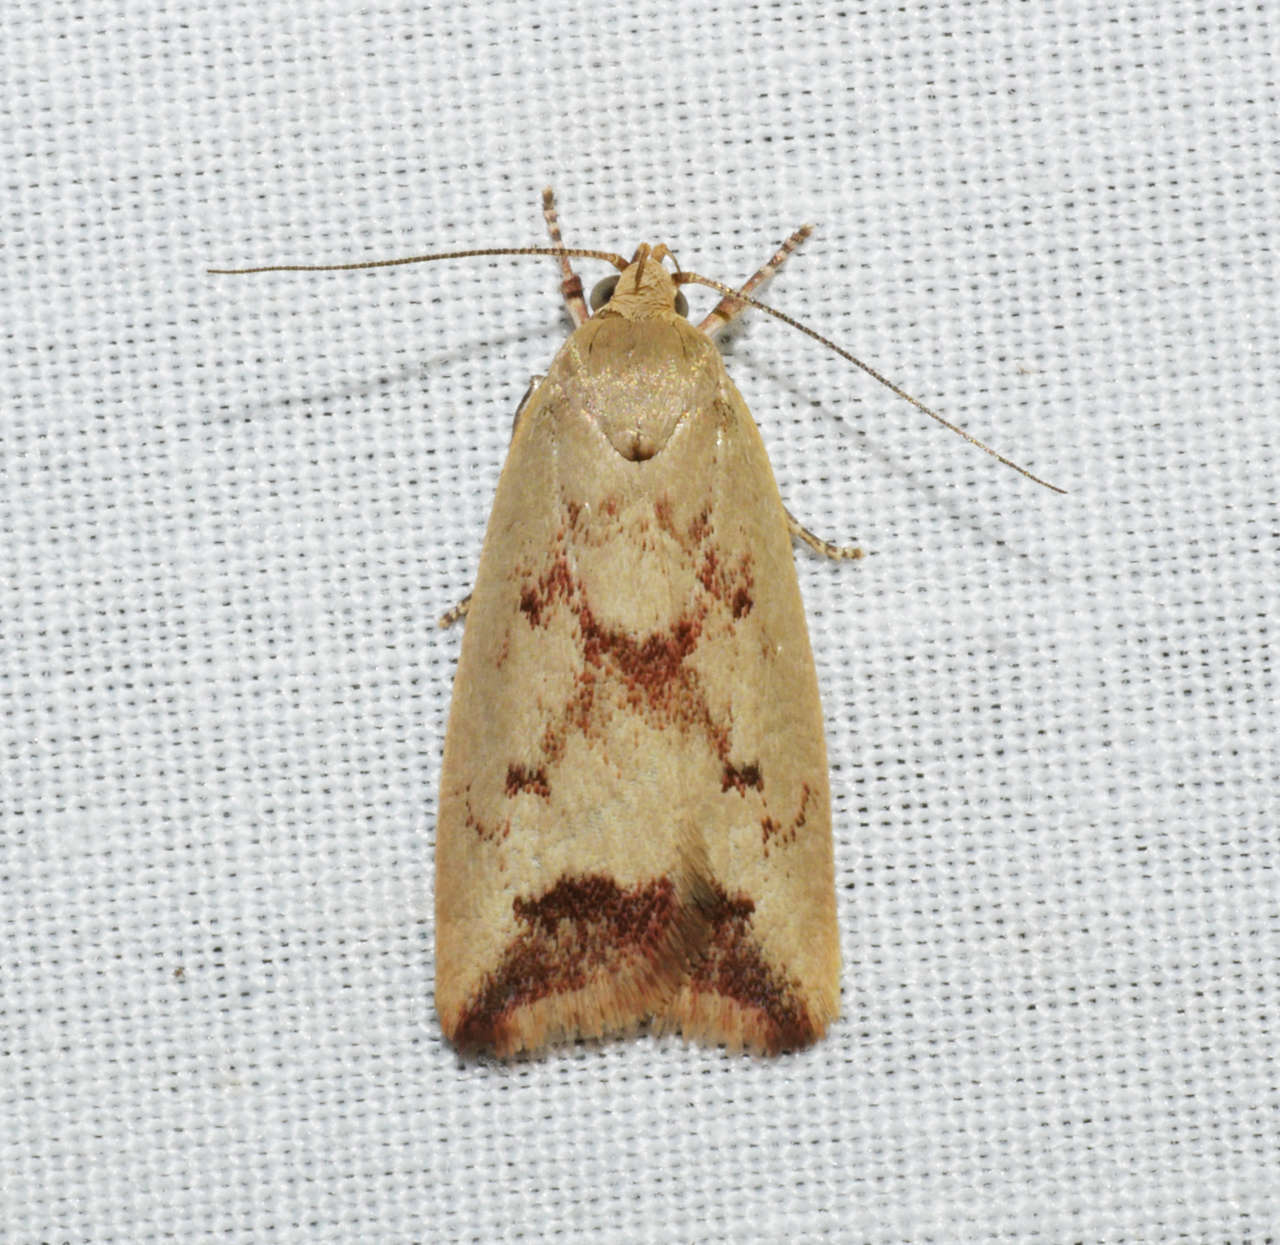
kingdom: Animalia
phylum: Arthropoda
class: Insecta
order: Lepidoptera
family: Oecophoridae
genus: Ageletha
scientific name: Ageletha elaeodes
